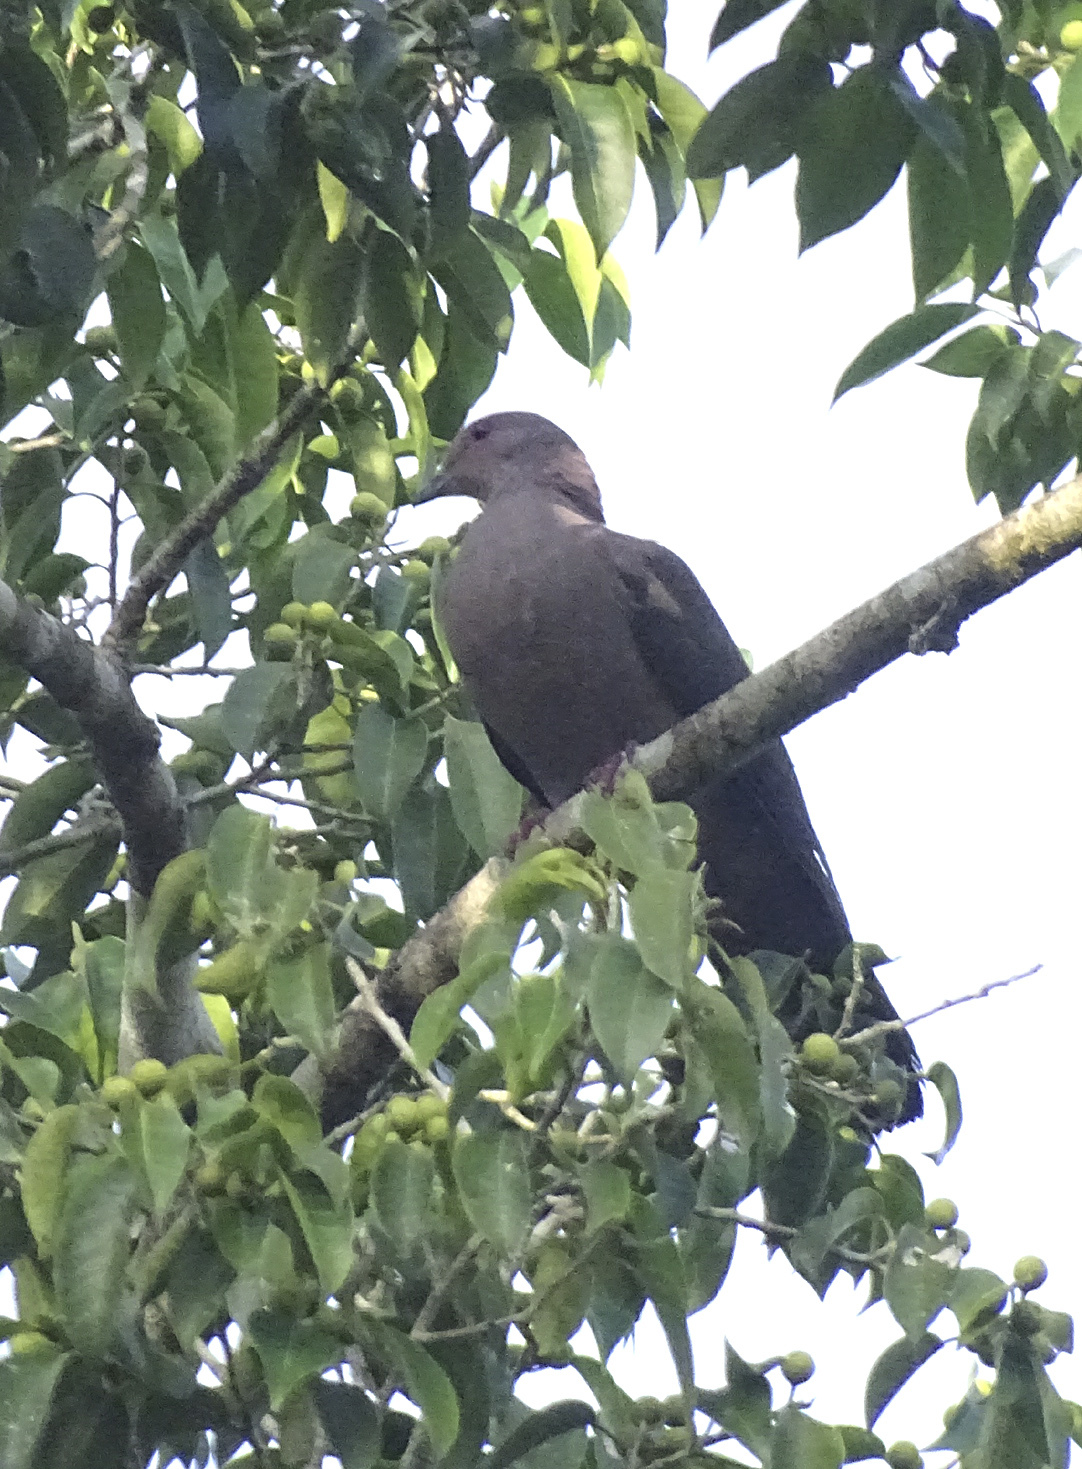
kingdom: Animalia
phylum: Chordata
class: Aves
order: Columbiformes
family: Columbidae
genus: Patagioenas
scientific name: Patagioenas nigrirostris
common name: Short-billed pigeon
